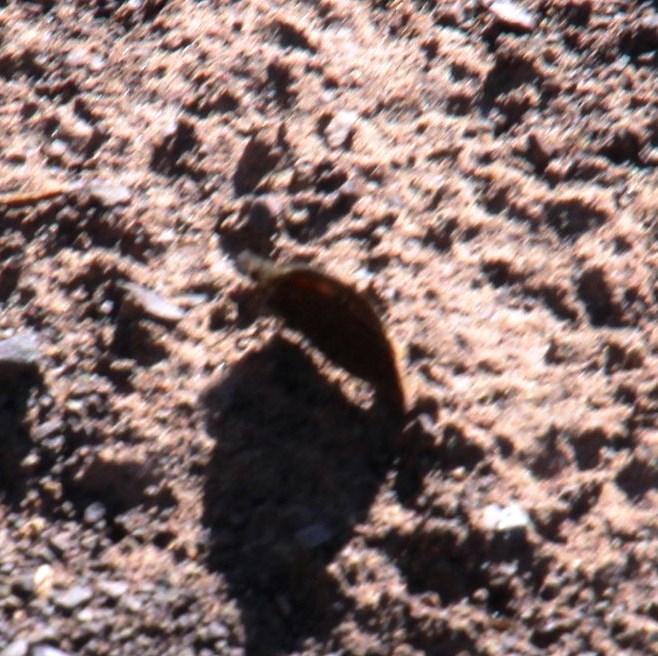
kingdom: Animalia
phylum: Arthropoda
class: Insecta
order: Lepidoptera
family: Nymphalidae
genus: Stygionympha
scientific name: Stygionympha irrorata
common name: Karoo hillside brown
